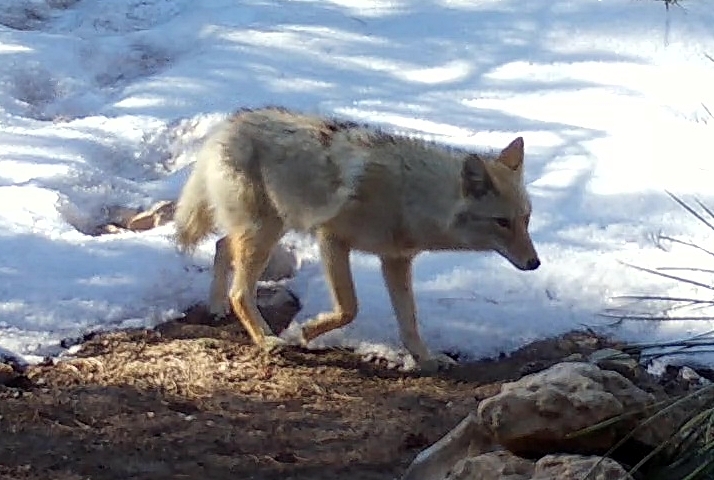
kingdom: Animalia
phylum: Chordata
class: Mammalia
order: Carnivora
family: Canidae
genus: Canis
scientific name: Canis latrans
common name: Coyote
